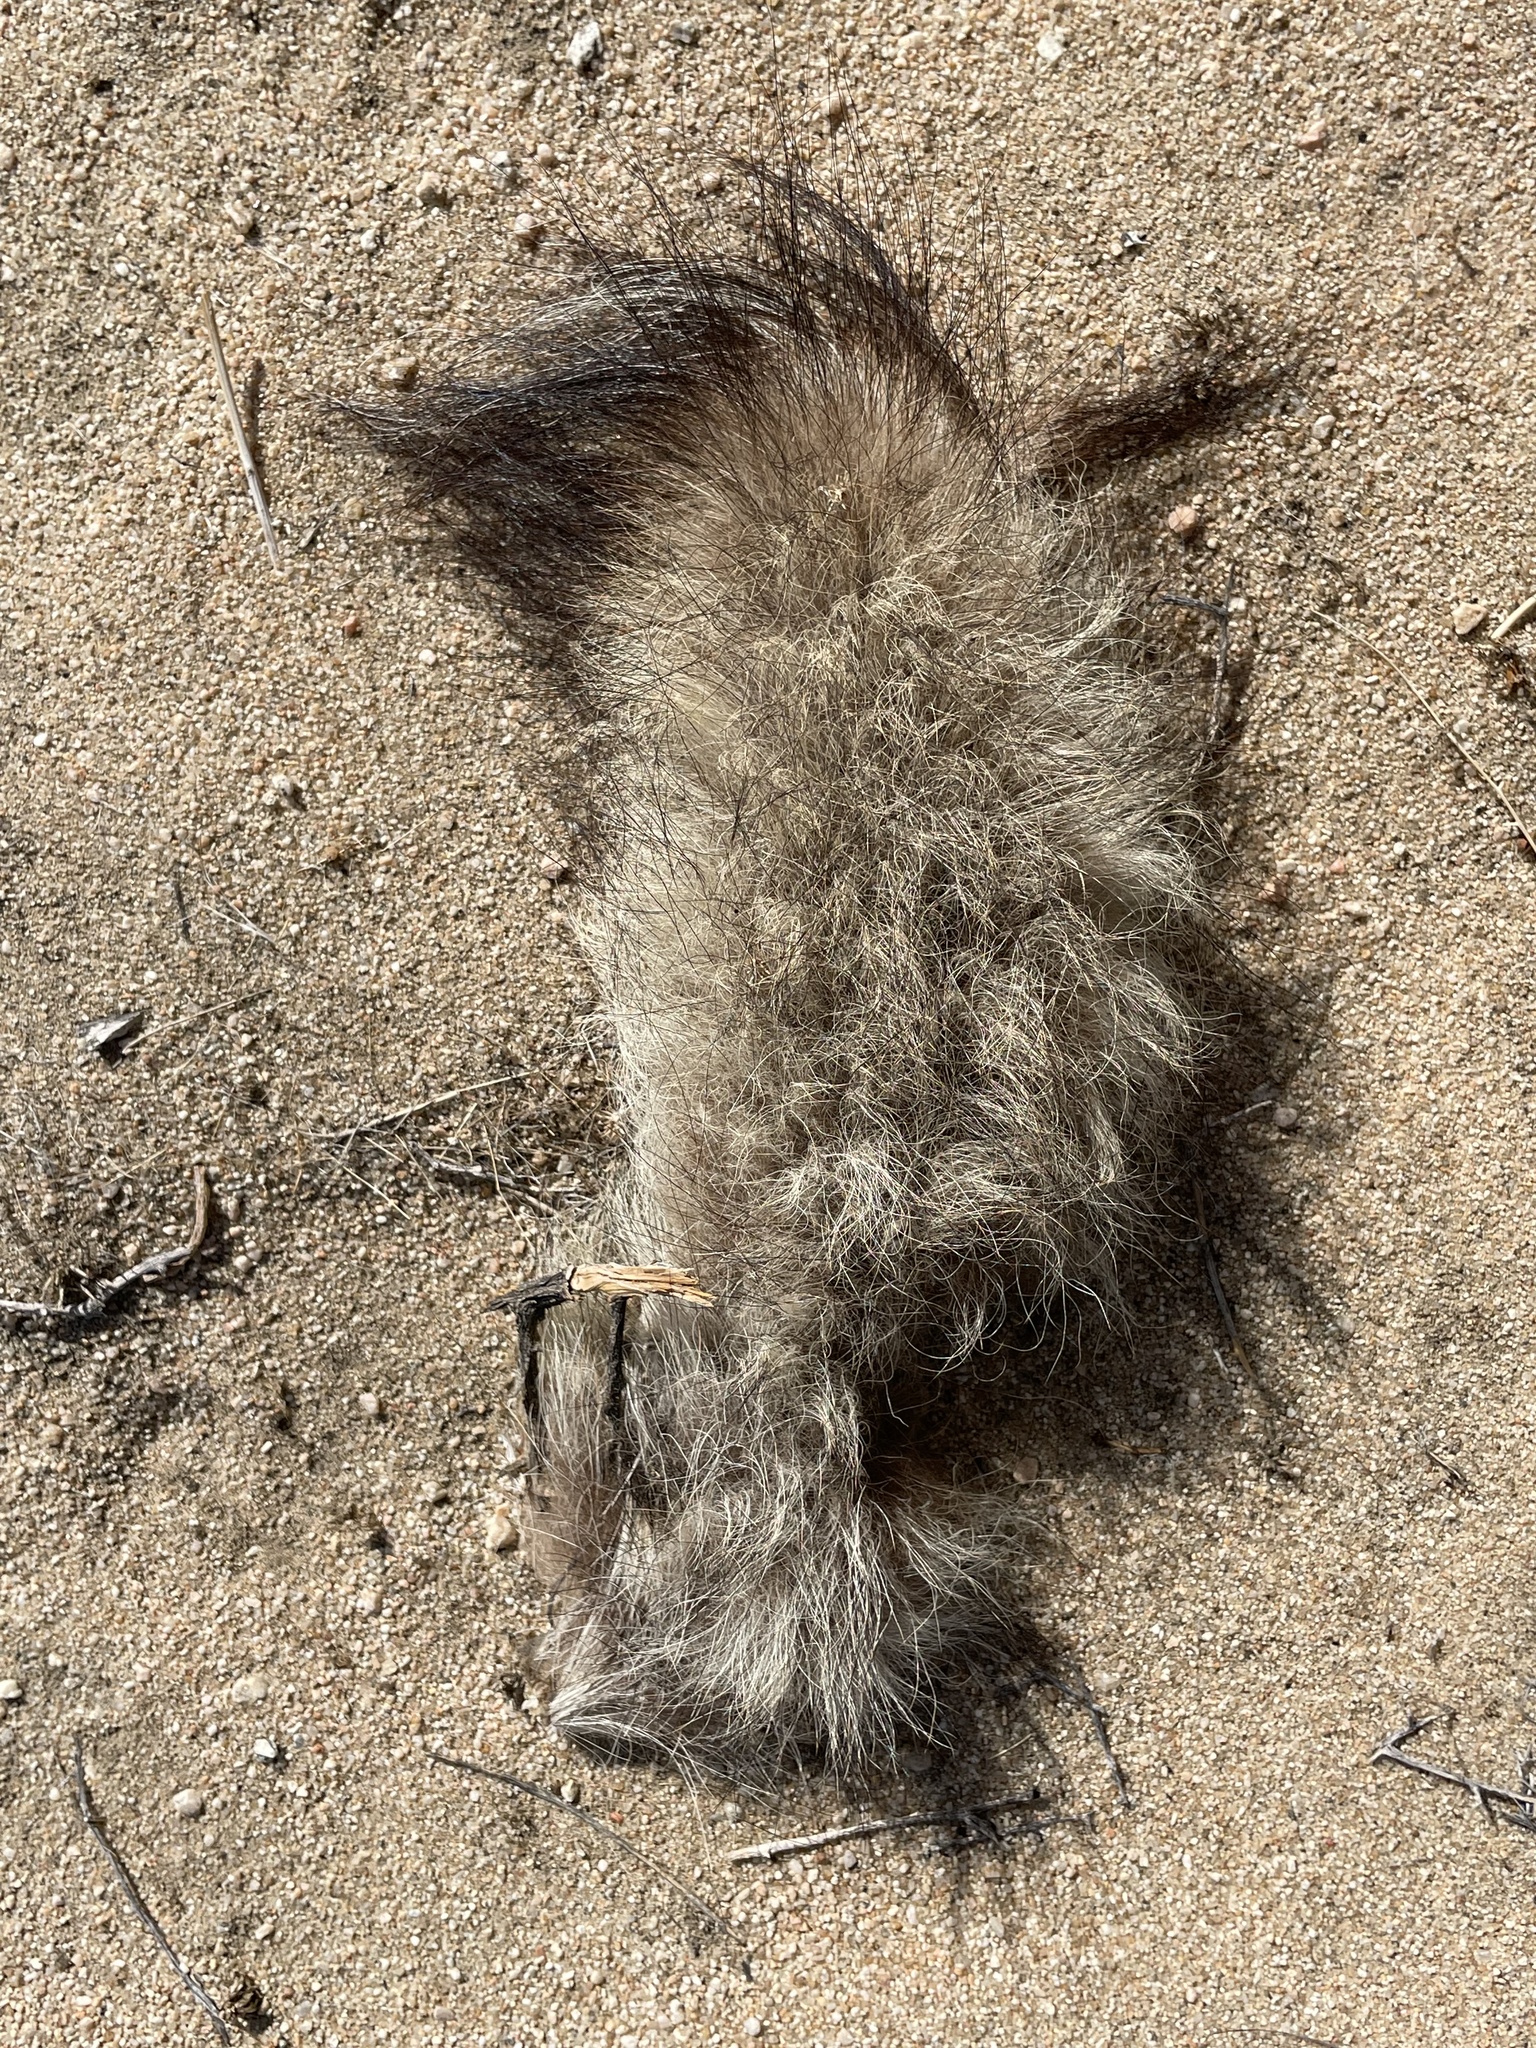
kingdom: Animalia
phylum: Chordata
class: Mammalia
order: Carnivora
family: Canidae
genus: Vulpes
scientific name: Vulpes macrotis
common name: Kit fox
